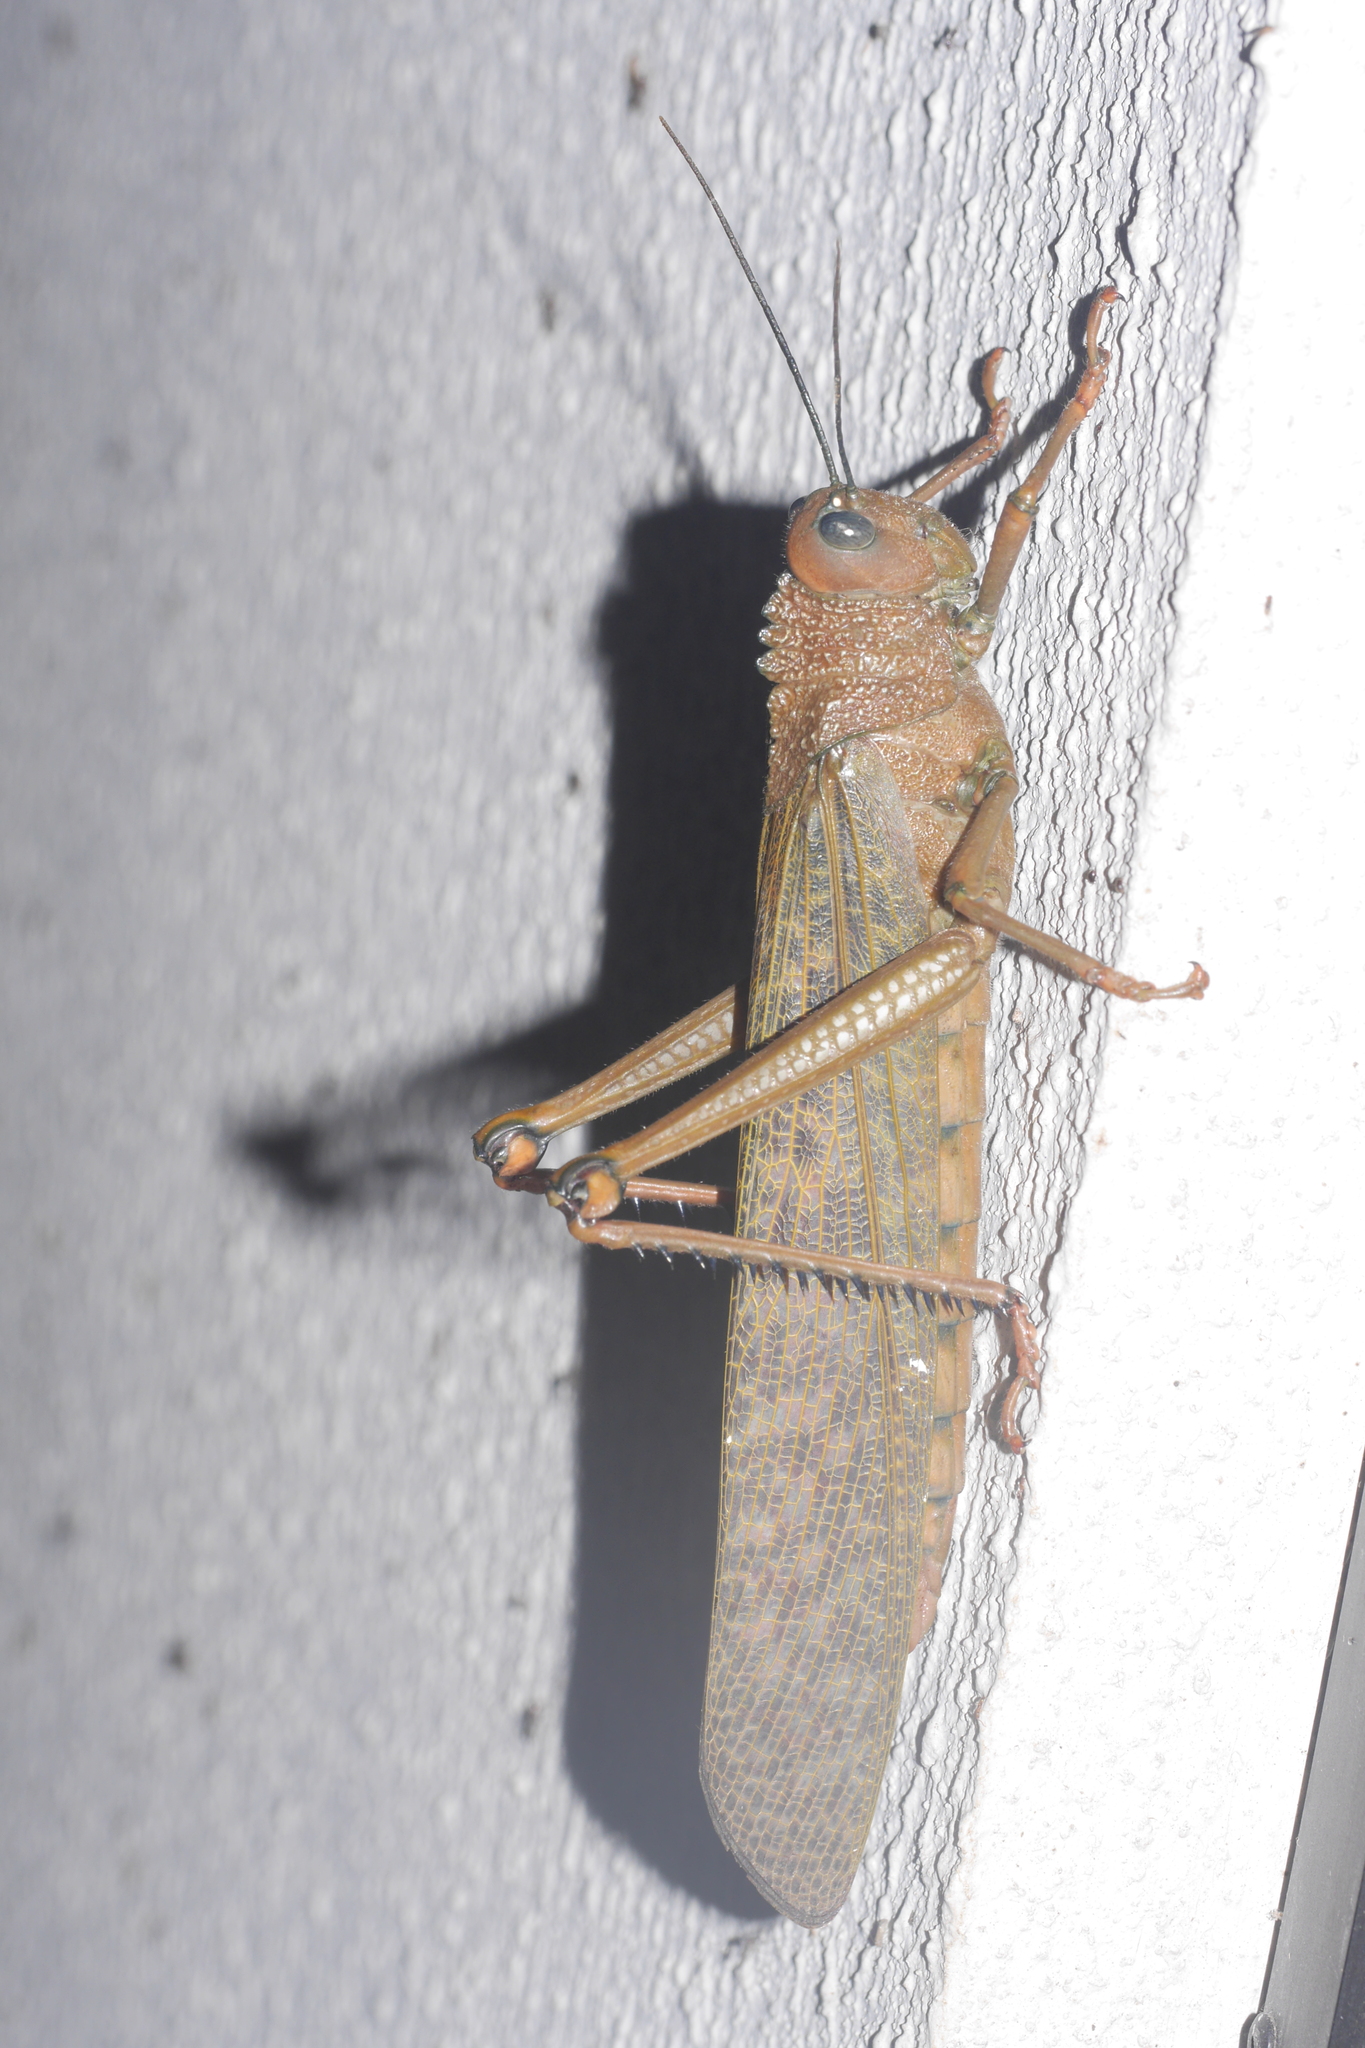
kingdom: Animalia
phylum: Arthropoda
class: Insecta
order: Orthoptera
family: Romaleidae
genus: Tropidacris
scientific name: Tropidacris cristata
